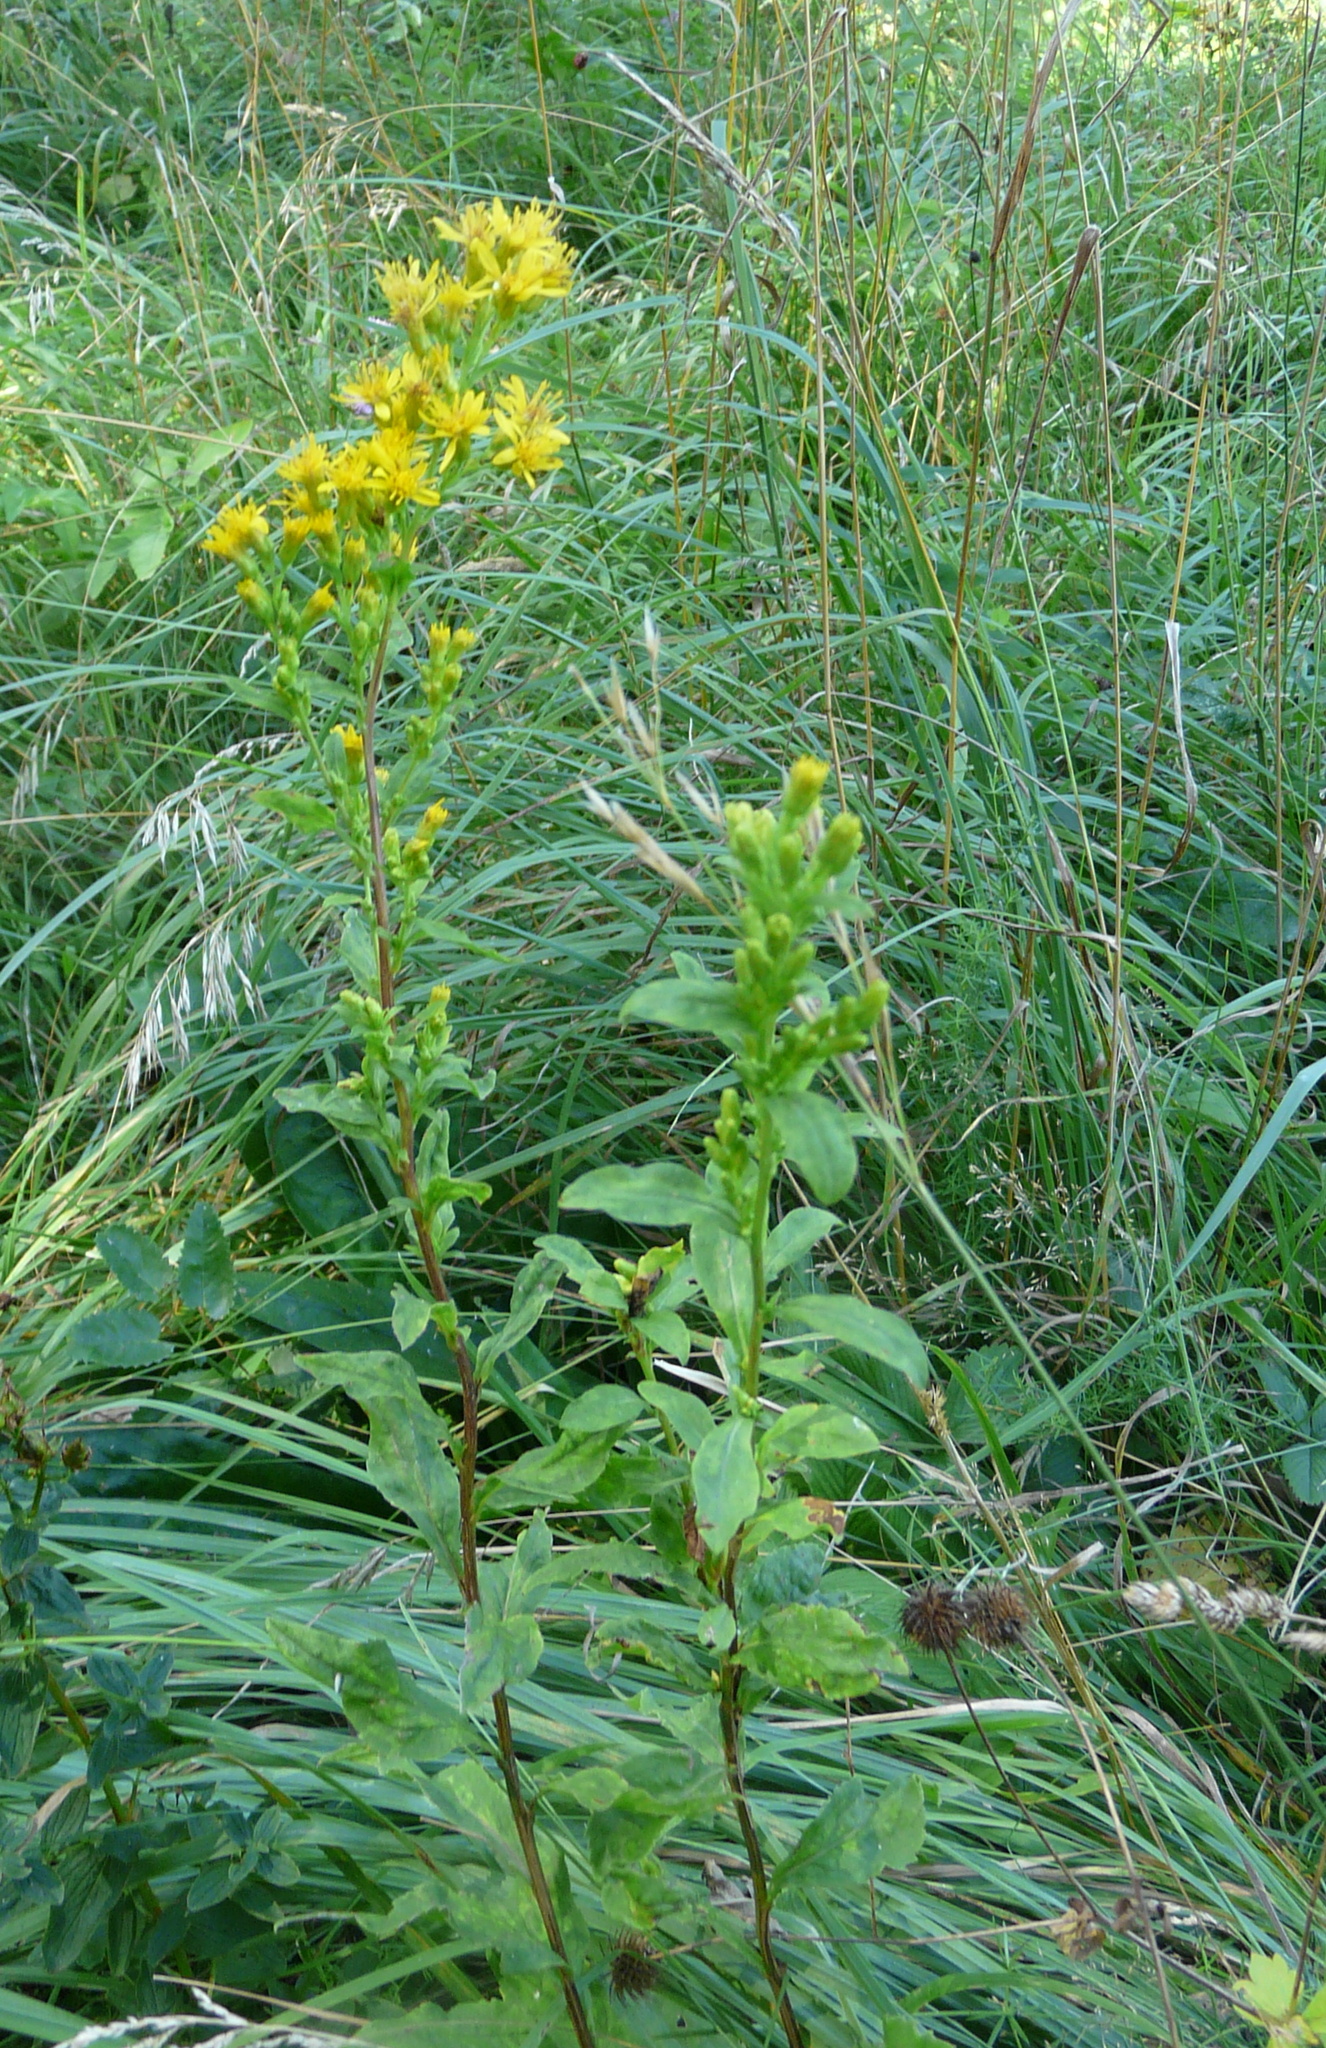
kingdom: Plantae
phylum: Tracheophyta
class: Magnoliopsida
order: Asterales
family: Asteraceae
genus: Solidago
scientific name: Solidago virgaurea
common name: Goldenrod
